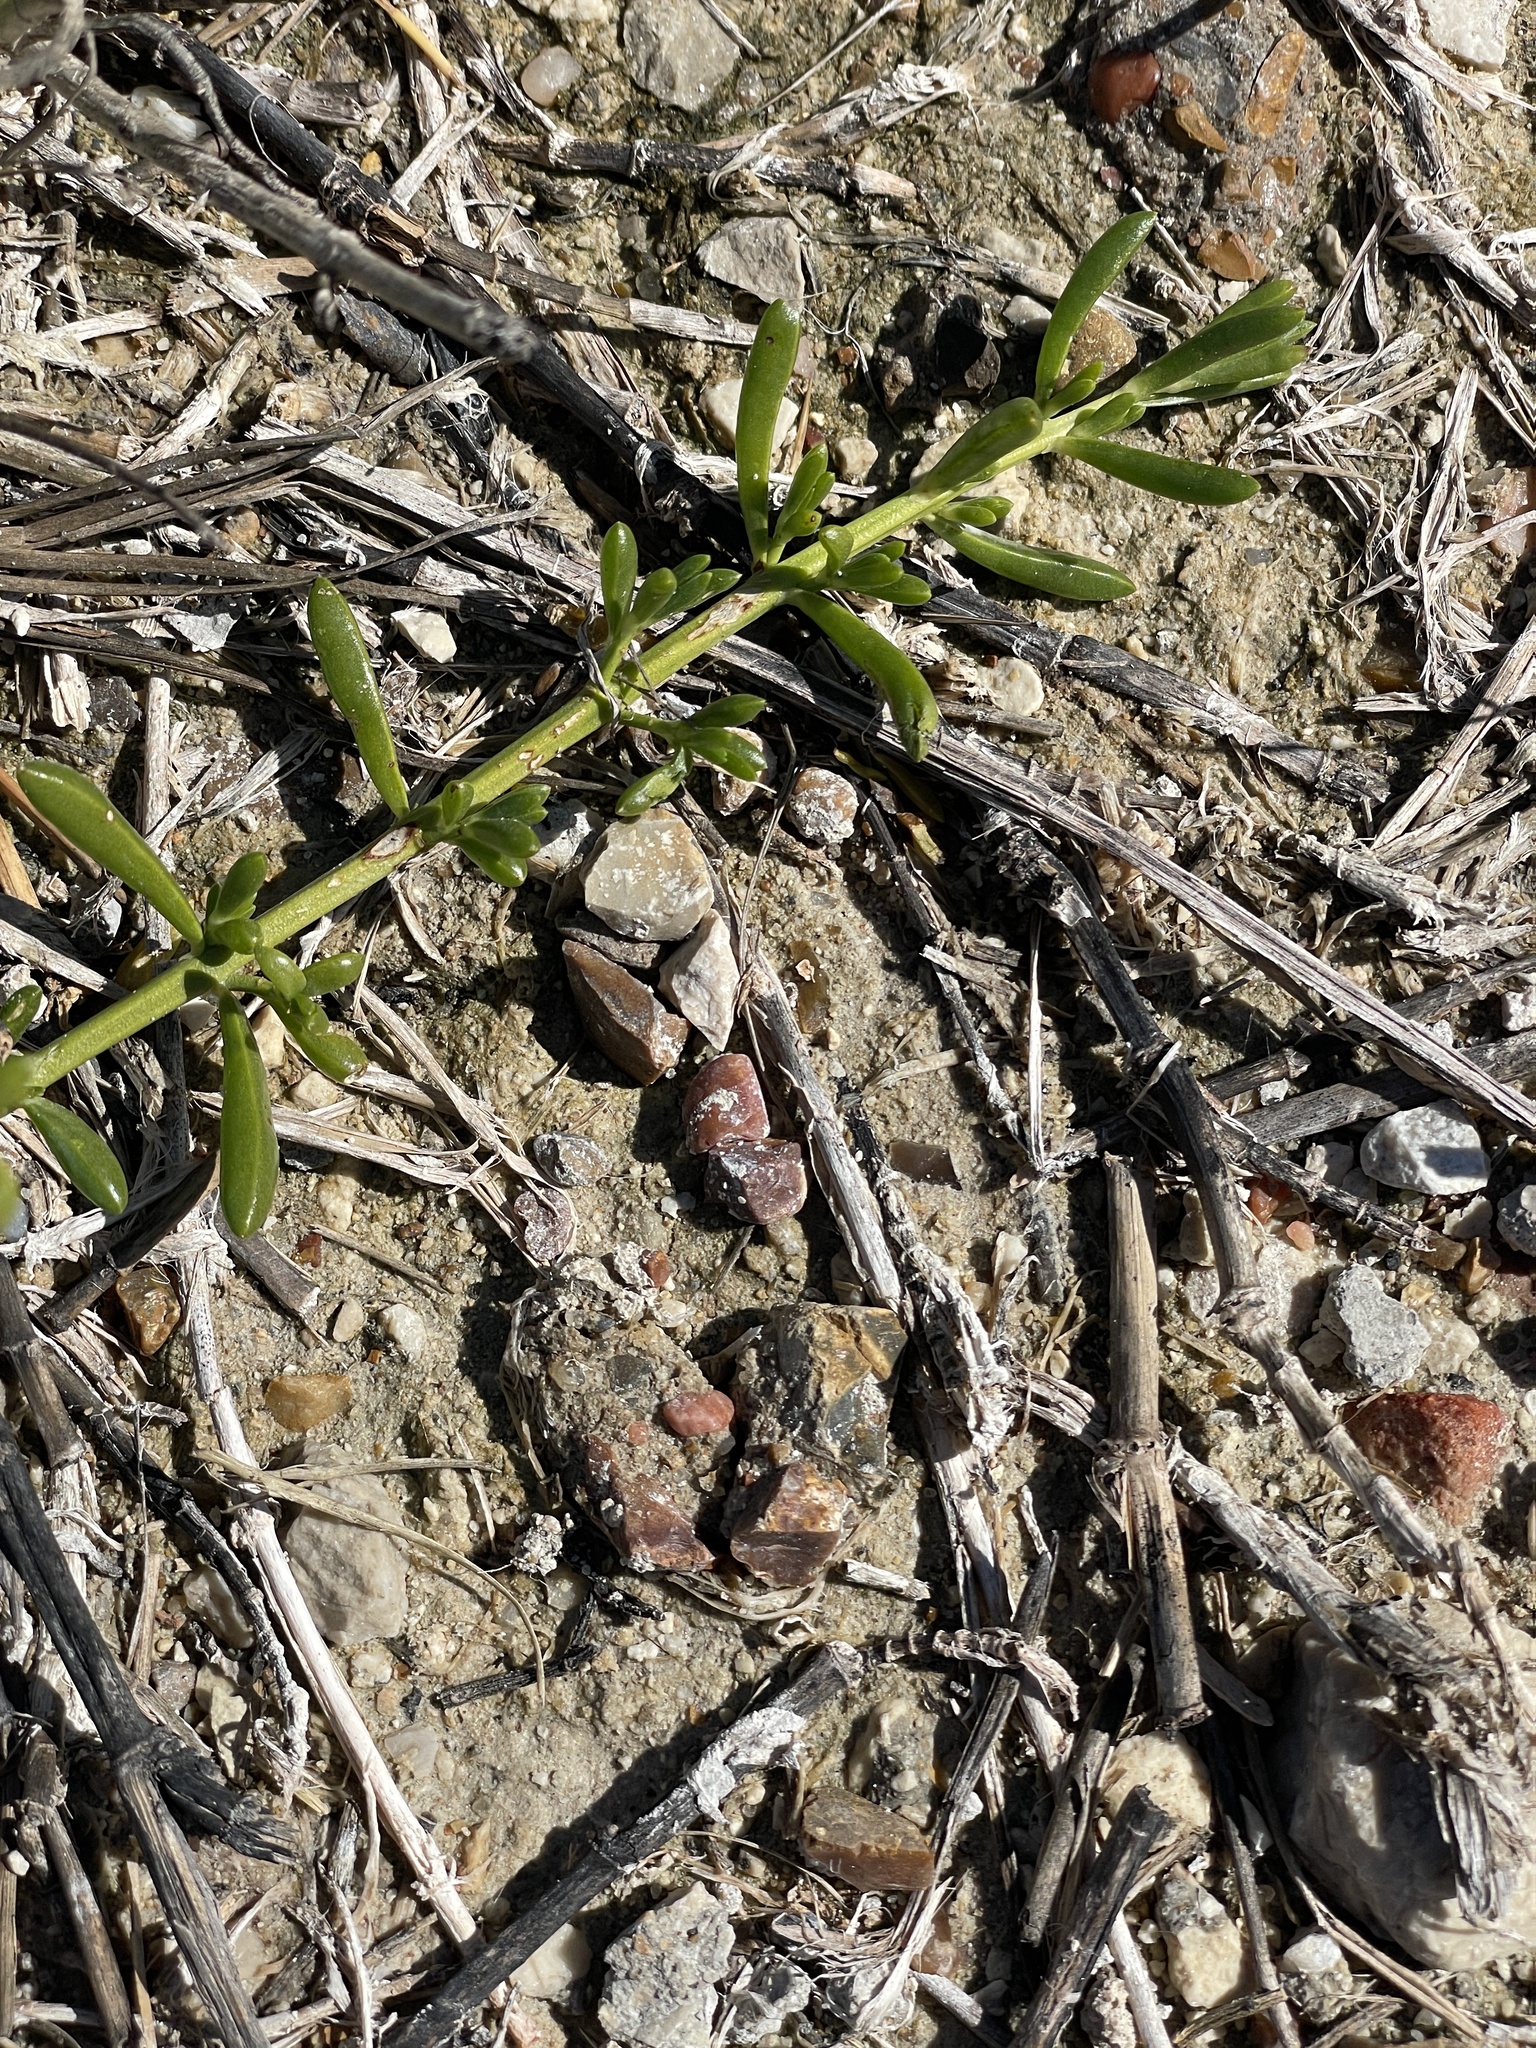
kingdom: Plantae
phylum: Tracheophyta
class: Magnoliopsida
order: Brassicales
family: Bataceae
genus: Batis
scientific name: Batis maritima
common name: Turtleweed
